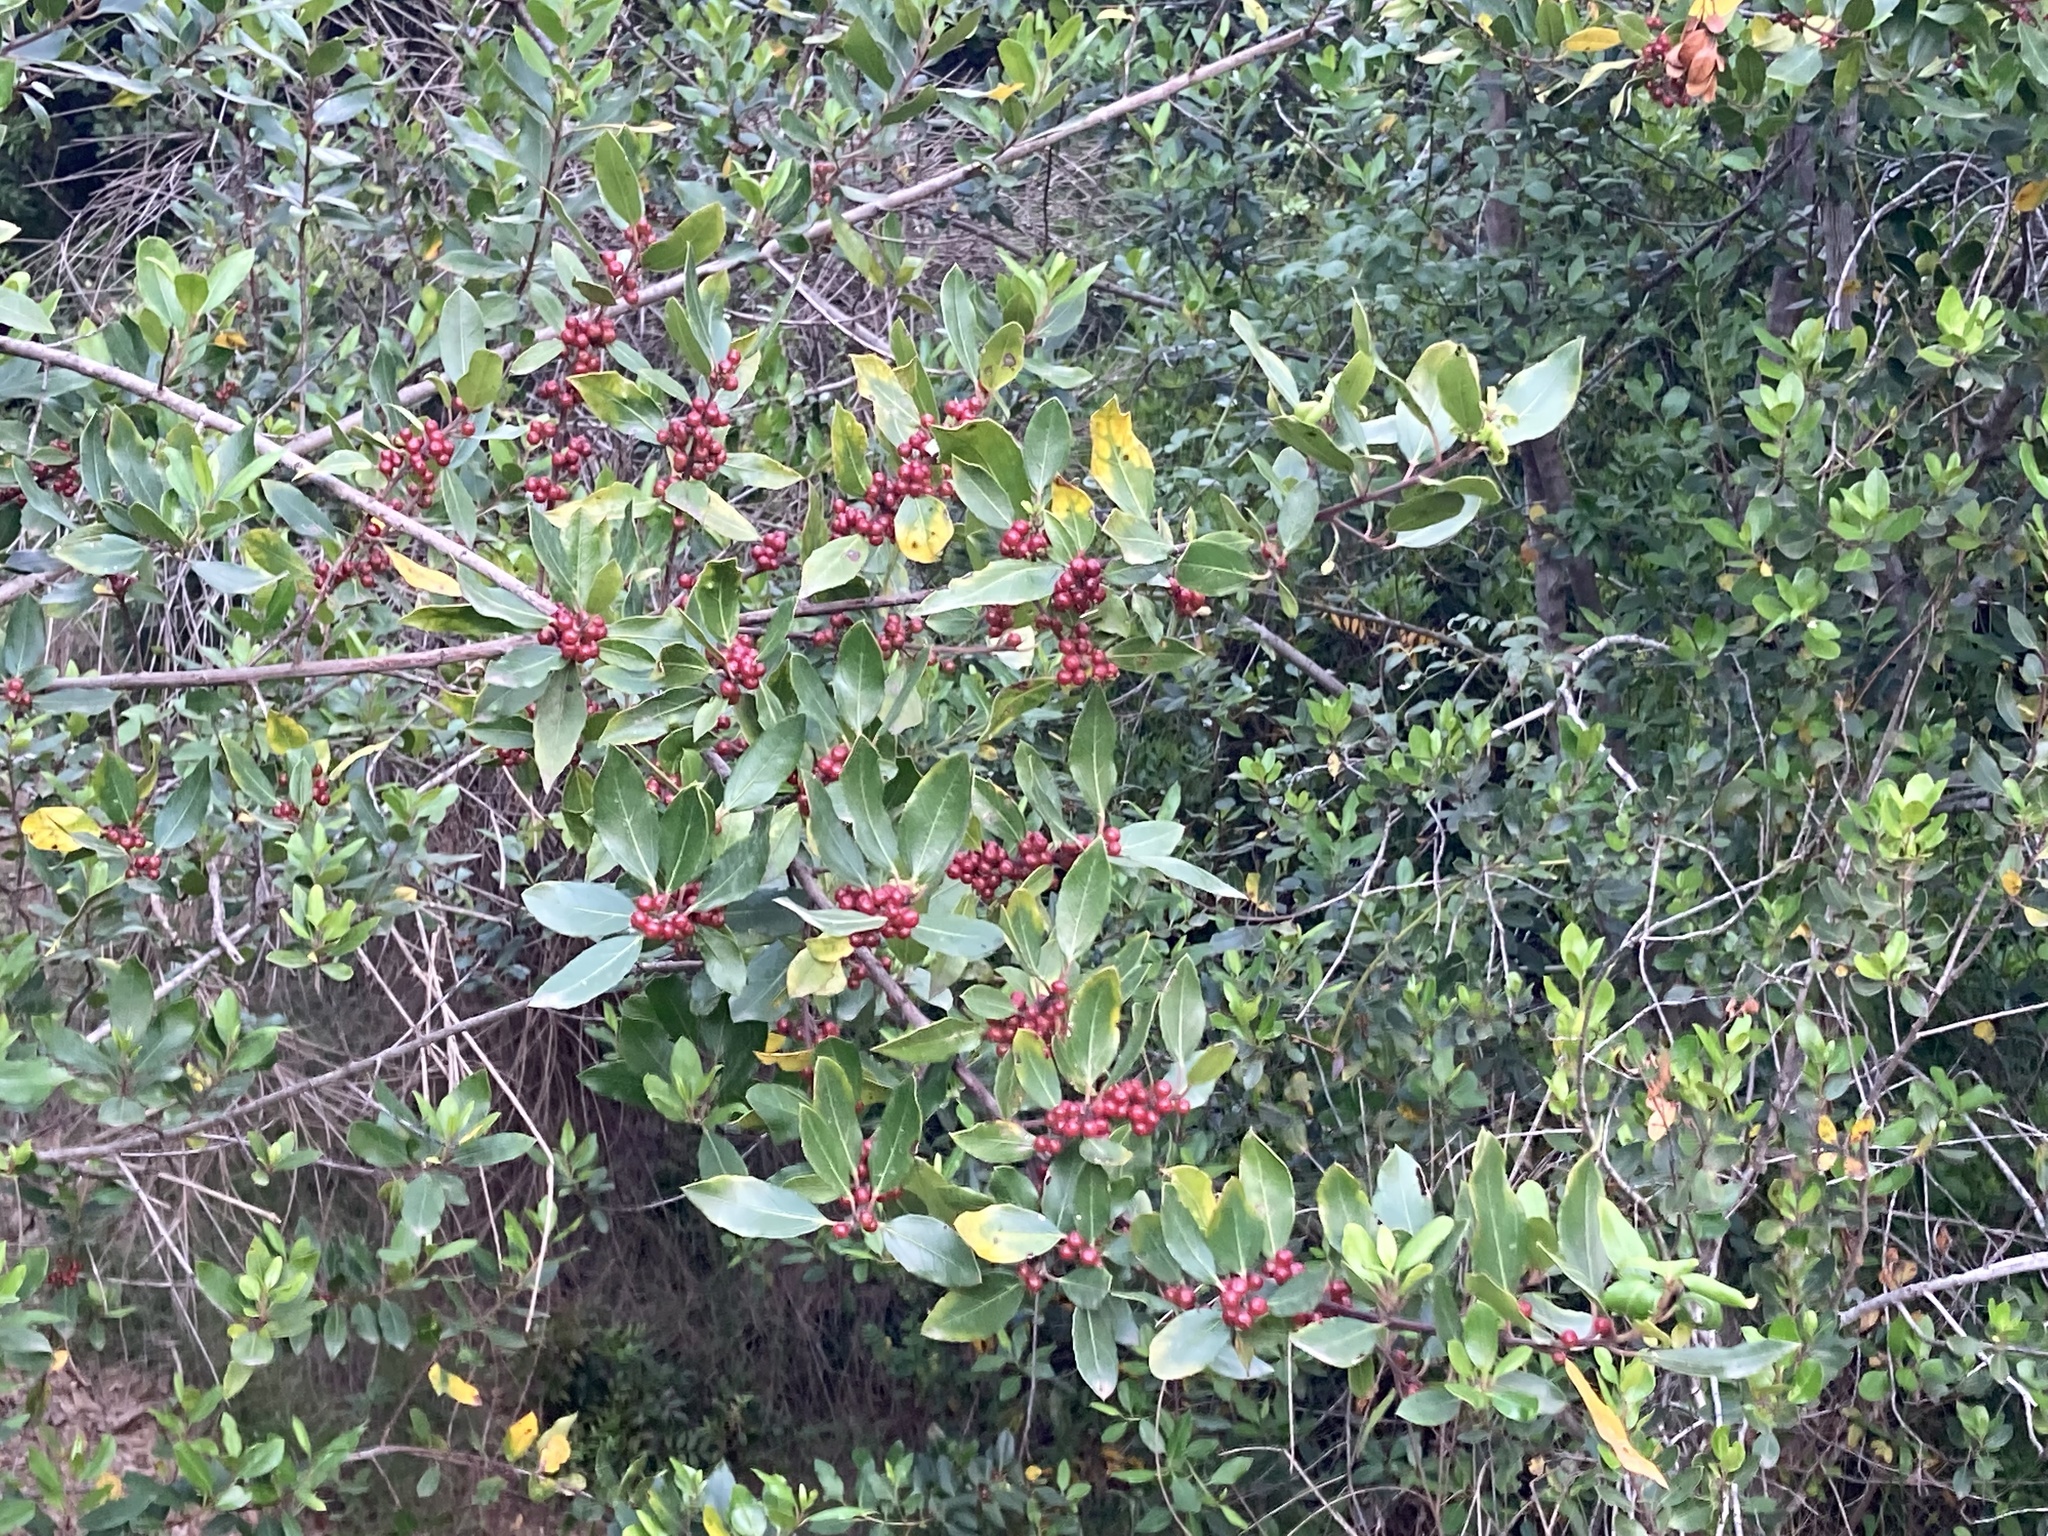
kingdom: Plantae
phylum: Tracheophyta
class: Magnoliopsida
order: Rosales
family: Rhamnaceae
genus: Rhamnus
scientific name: Rhamnus alaternus
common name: Mediterranean buckthorn
